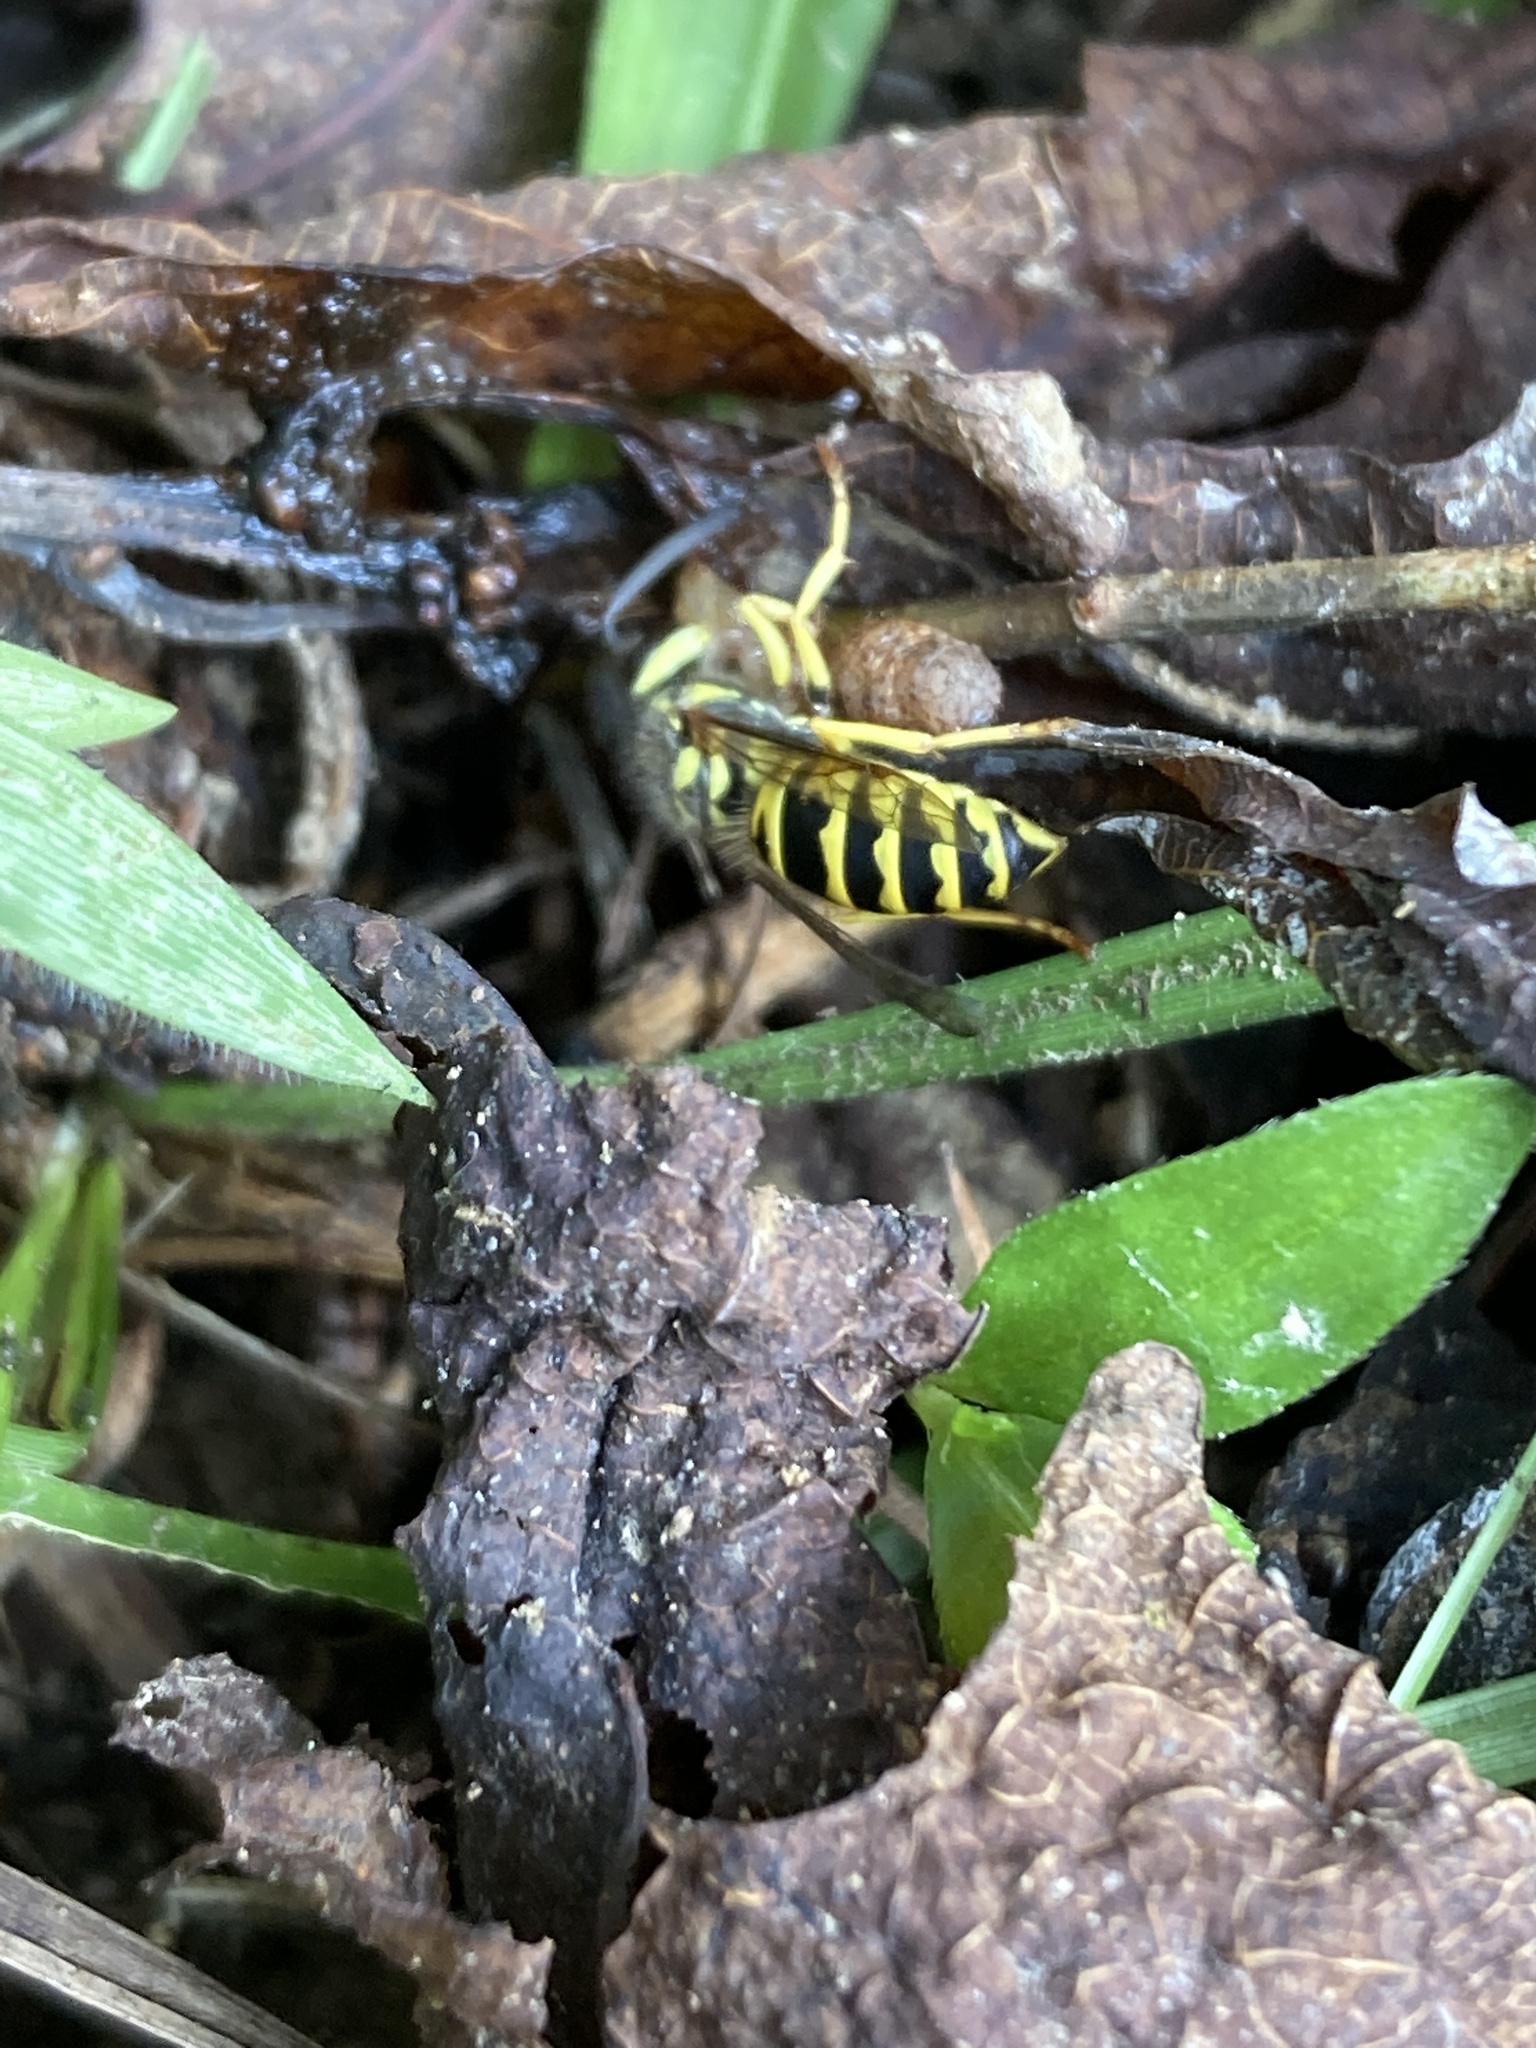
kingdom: Animalia
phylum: Arthropoda
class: Insecta
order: Hymenoptera
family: Vespidae
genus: Vespula
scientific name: Vespula maculifrons
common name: Eastern yellowjacket
